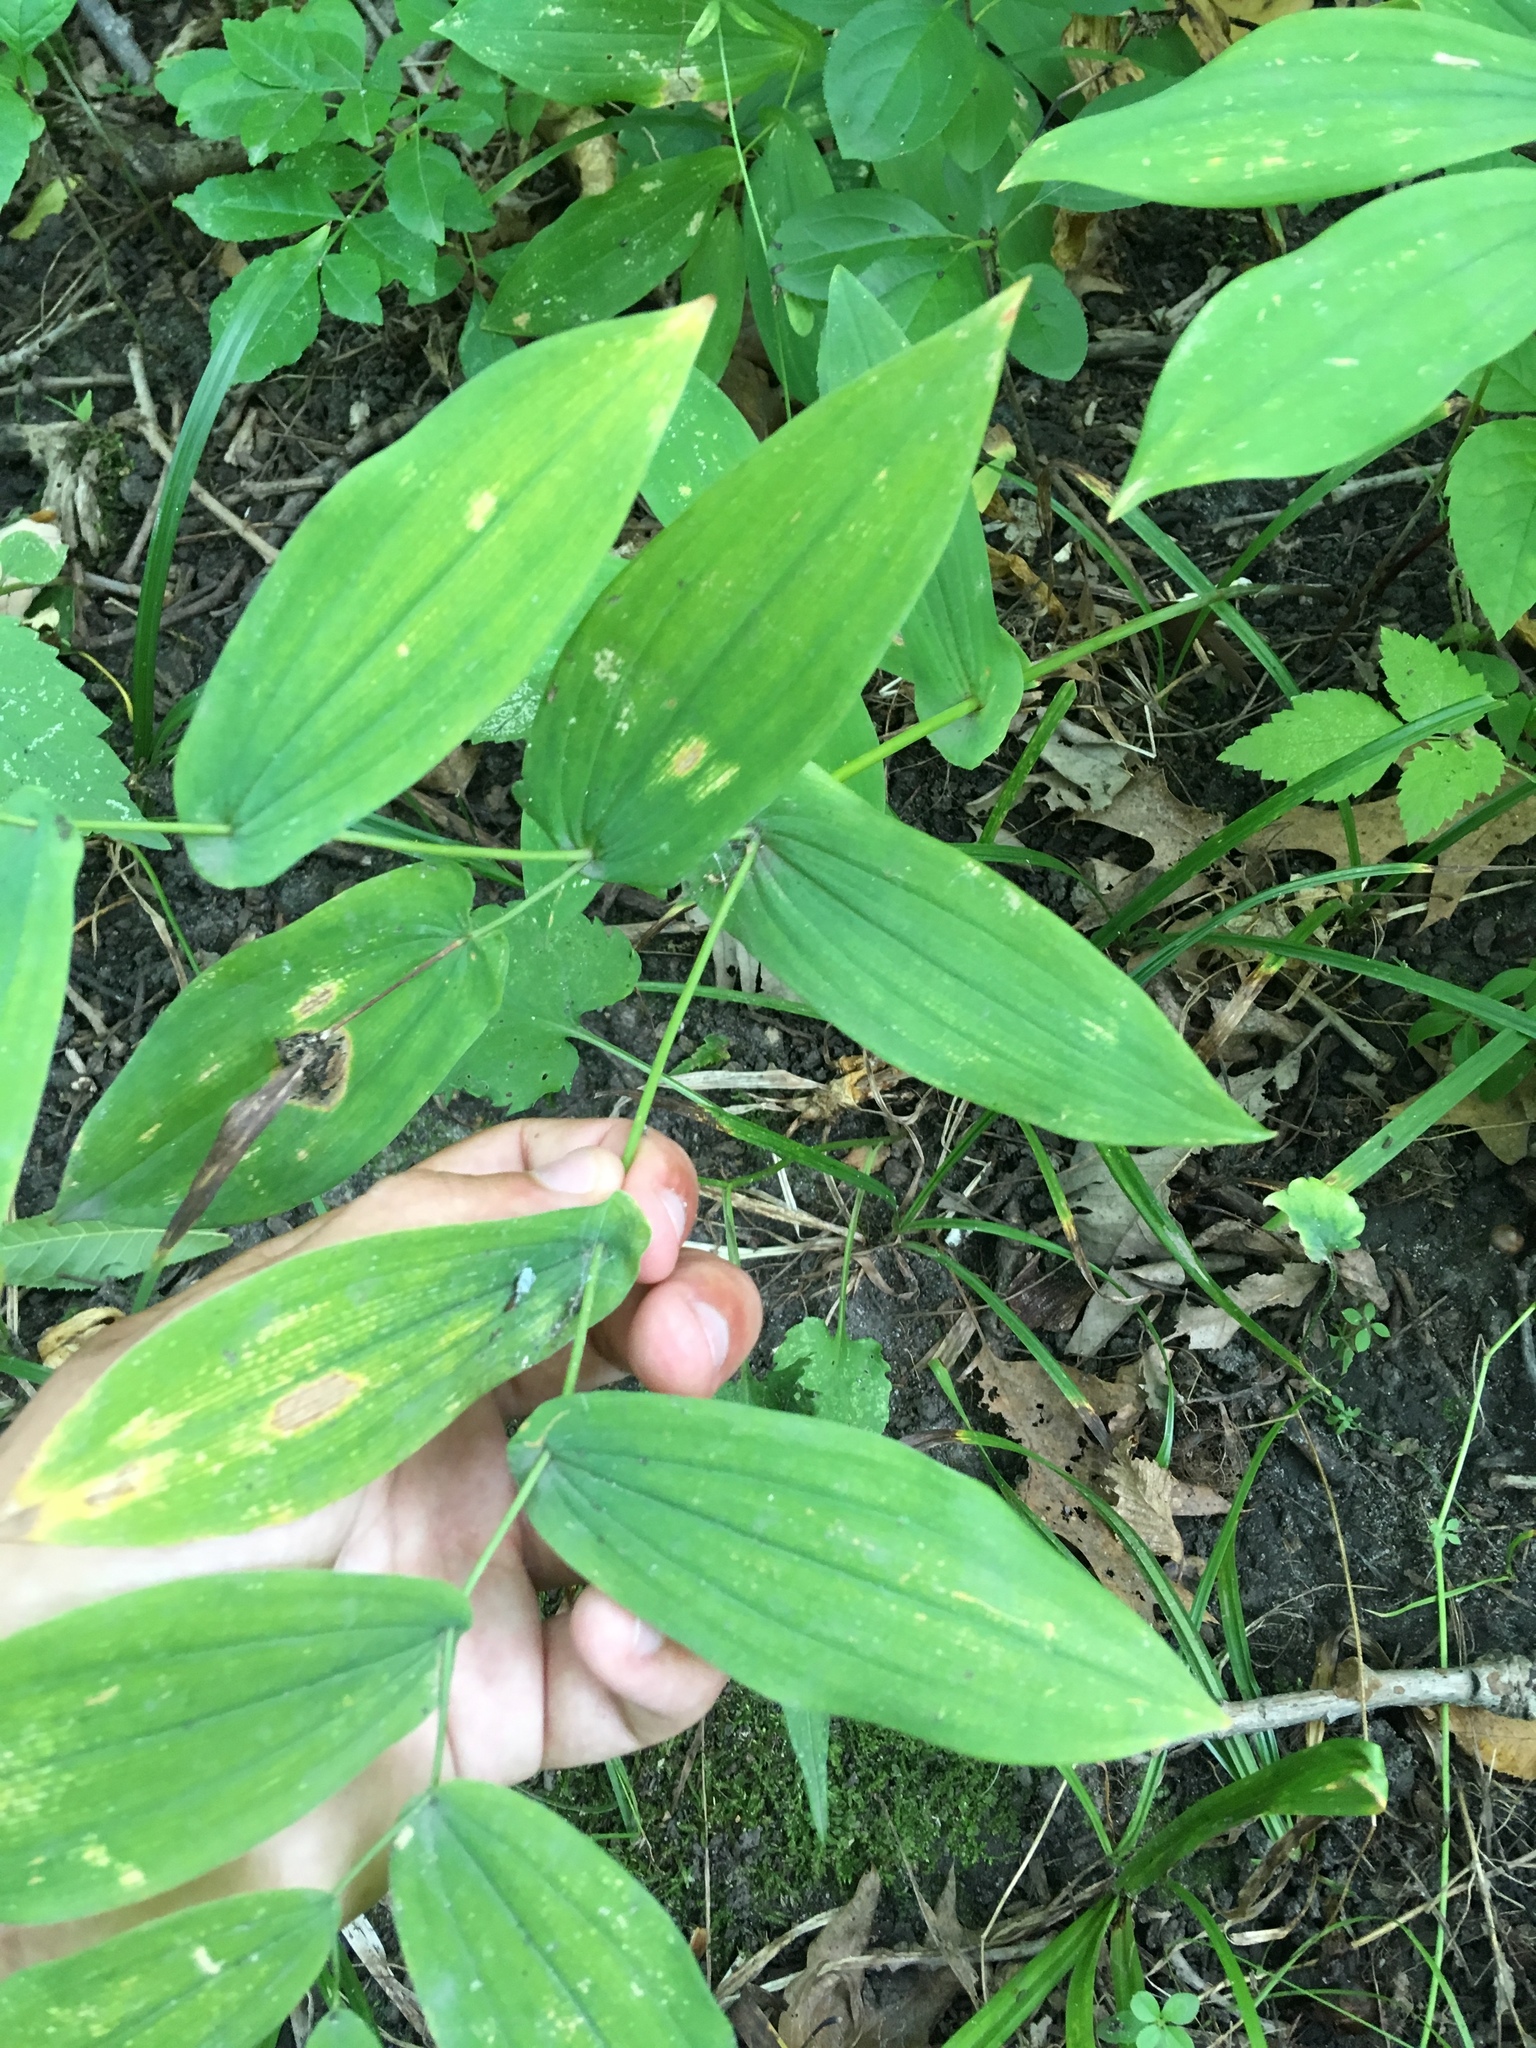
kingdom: Plantae
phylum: Tracheophyta
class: Liliopsida
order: Liliales
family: Colchicaceae
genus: Uvularia
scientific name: Uvularia grandiflora
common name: Bellwort
